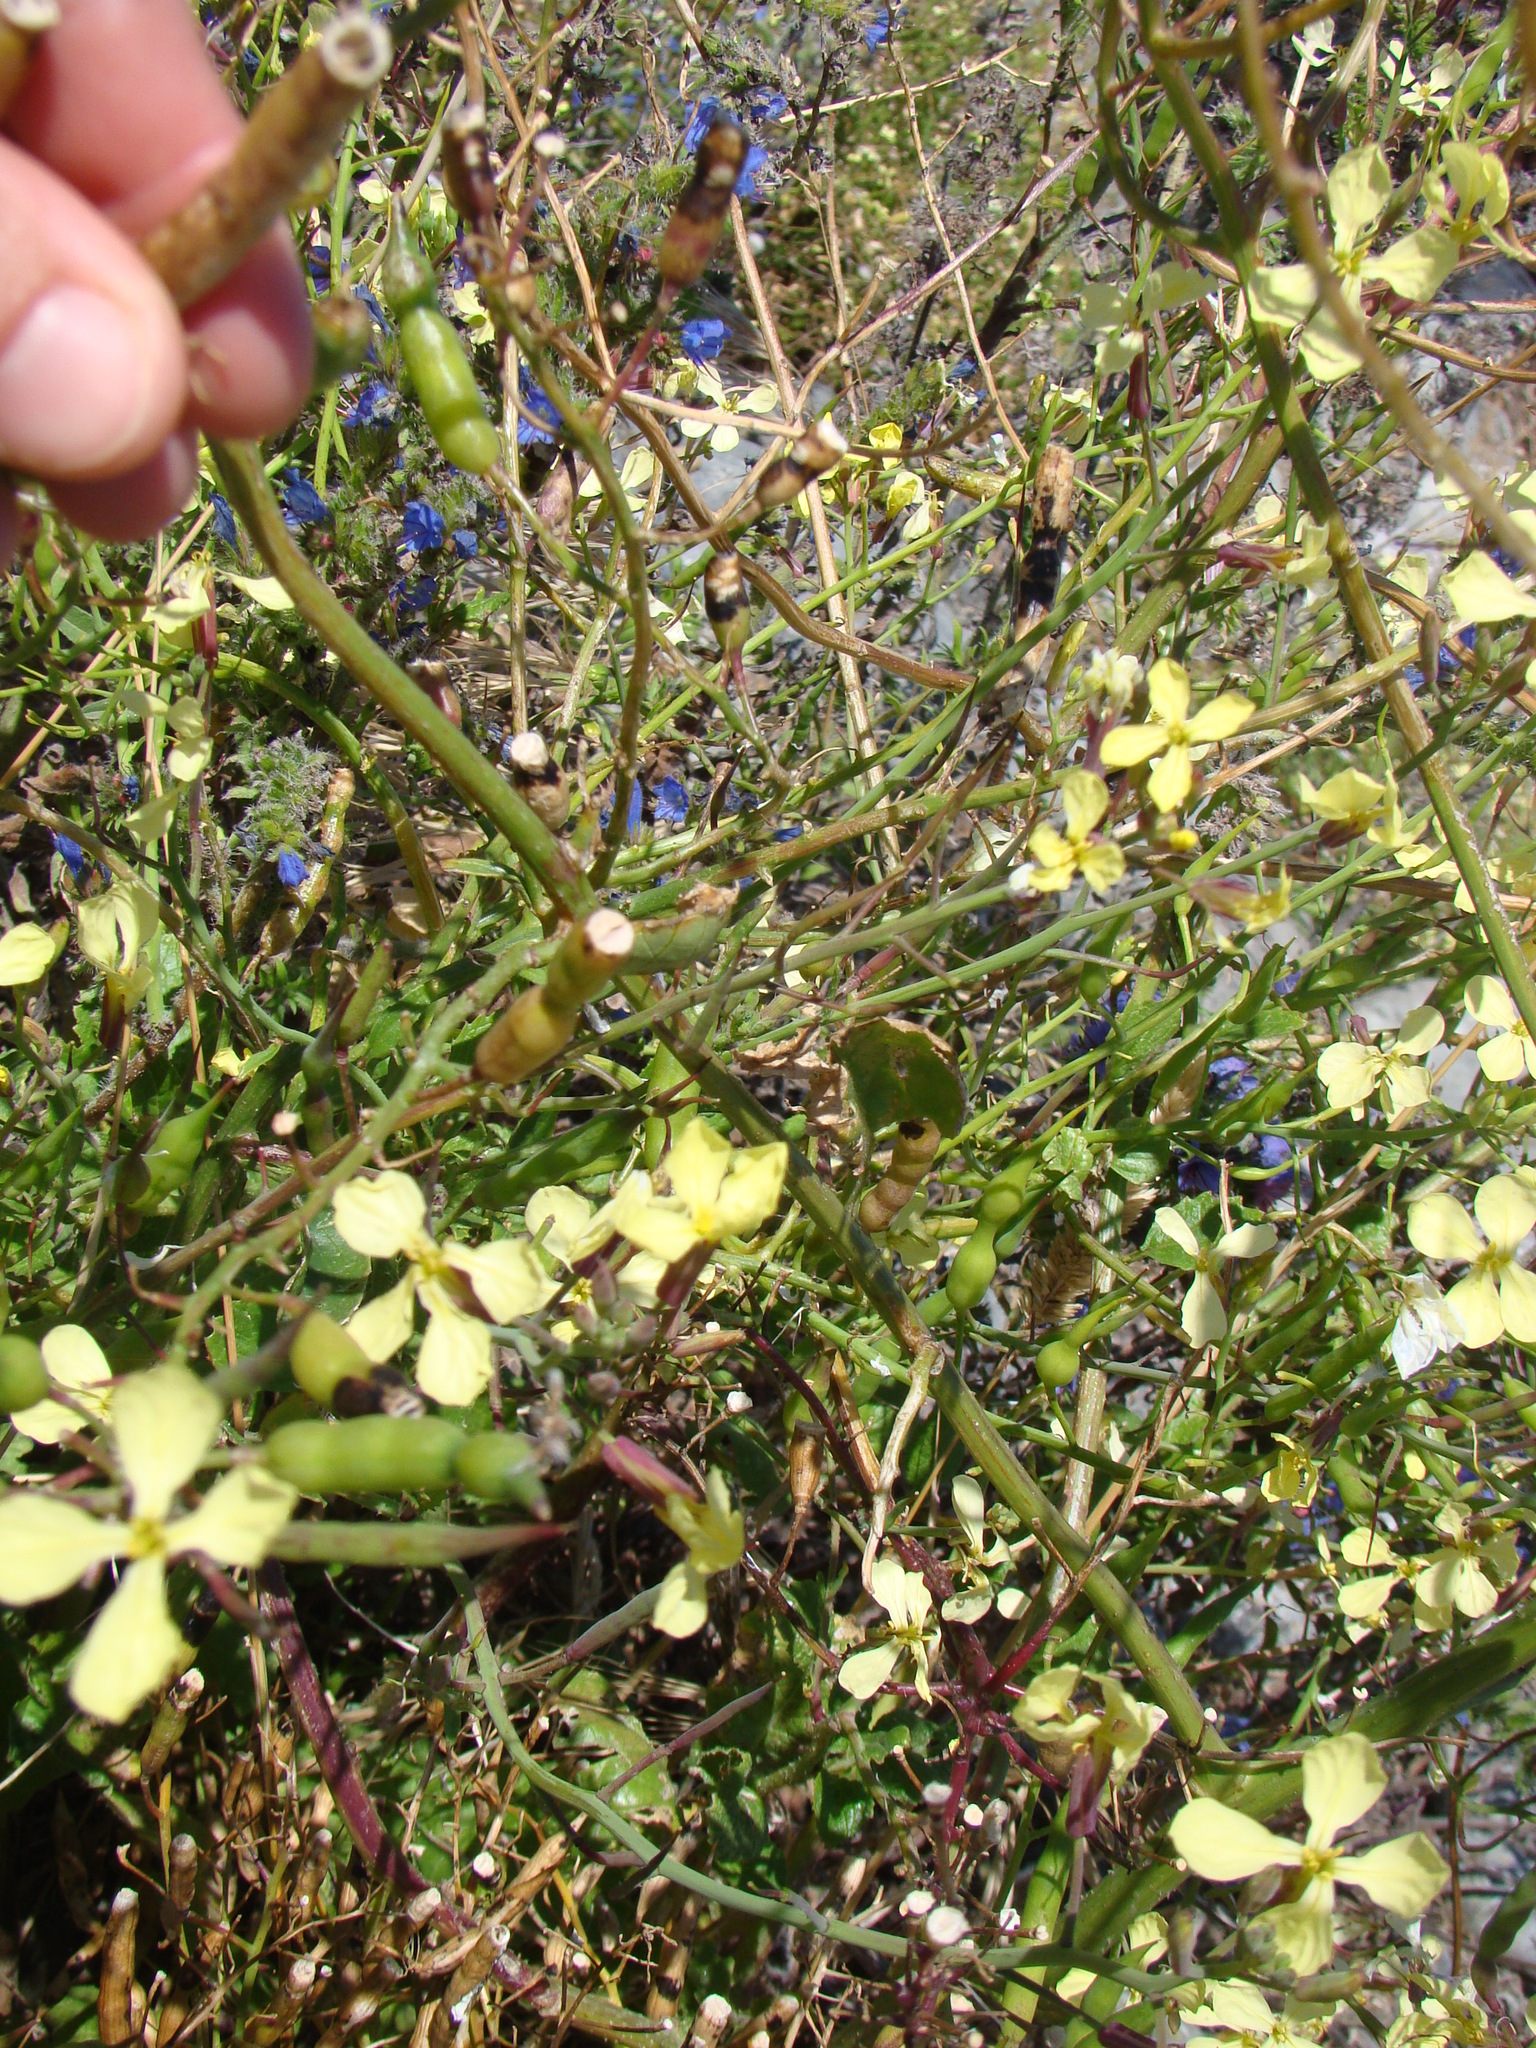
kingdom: Plantae
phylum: Tracheophyta
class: Magnoliopsida
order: Brassicales
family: Brassicaceae
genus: Raphanus
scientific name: Raphanus raphanistrum
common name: Wild radish
